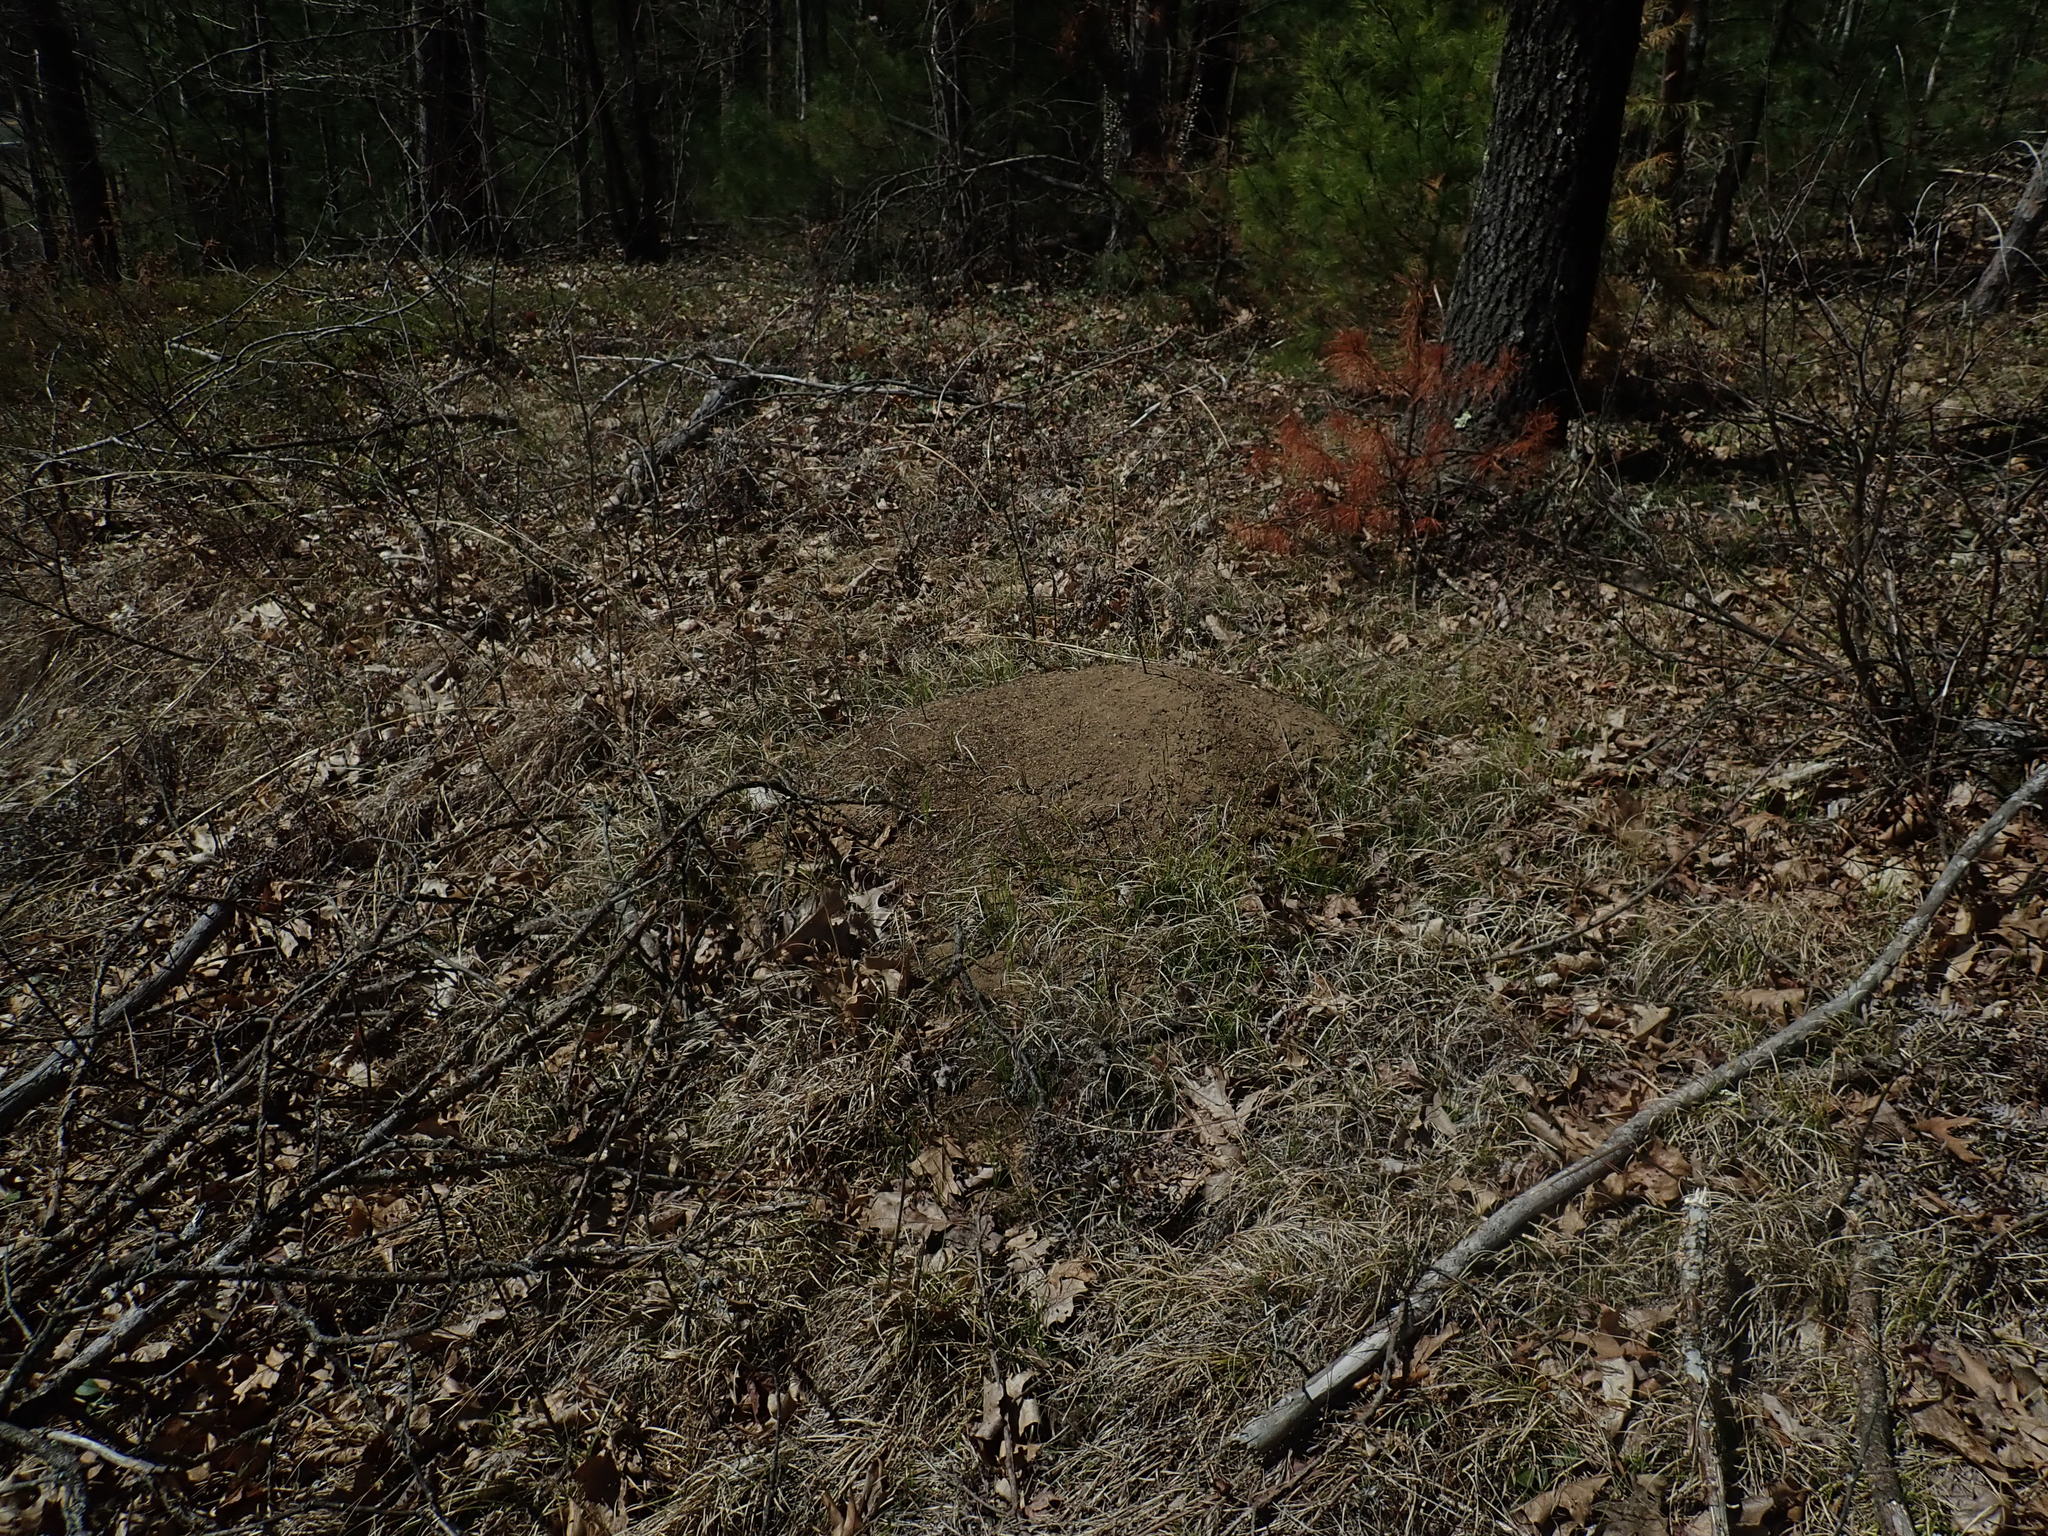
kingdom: Animalia
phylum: Arthropoda
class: Insecta
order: Hymenoptera
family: Formicidae
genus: Formica
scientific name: Formica exsectoides
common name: Allegheny mound ant
